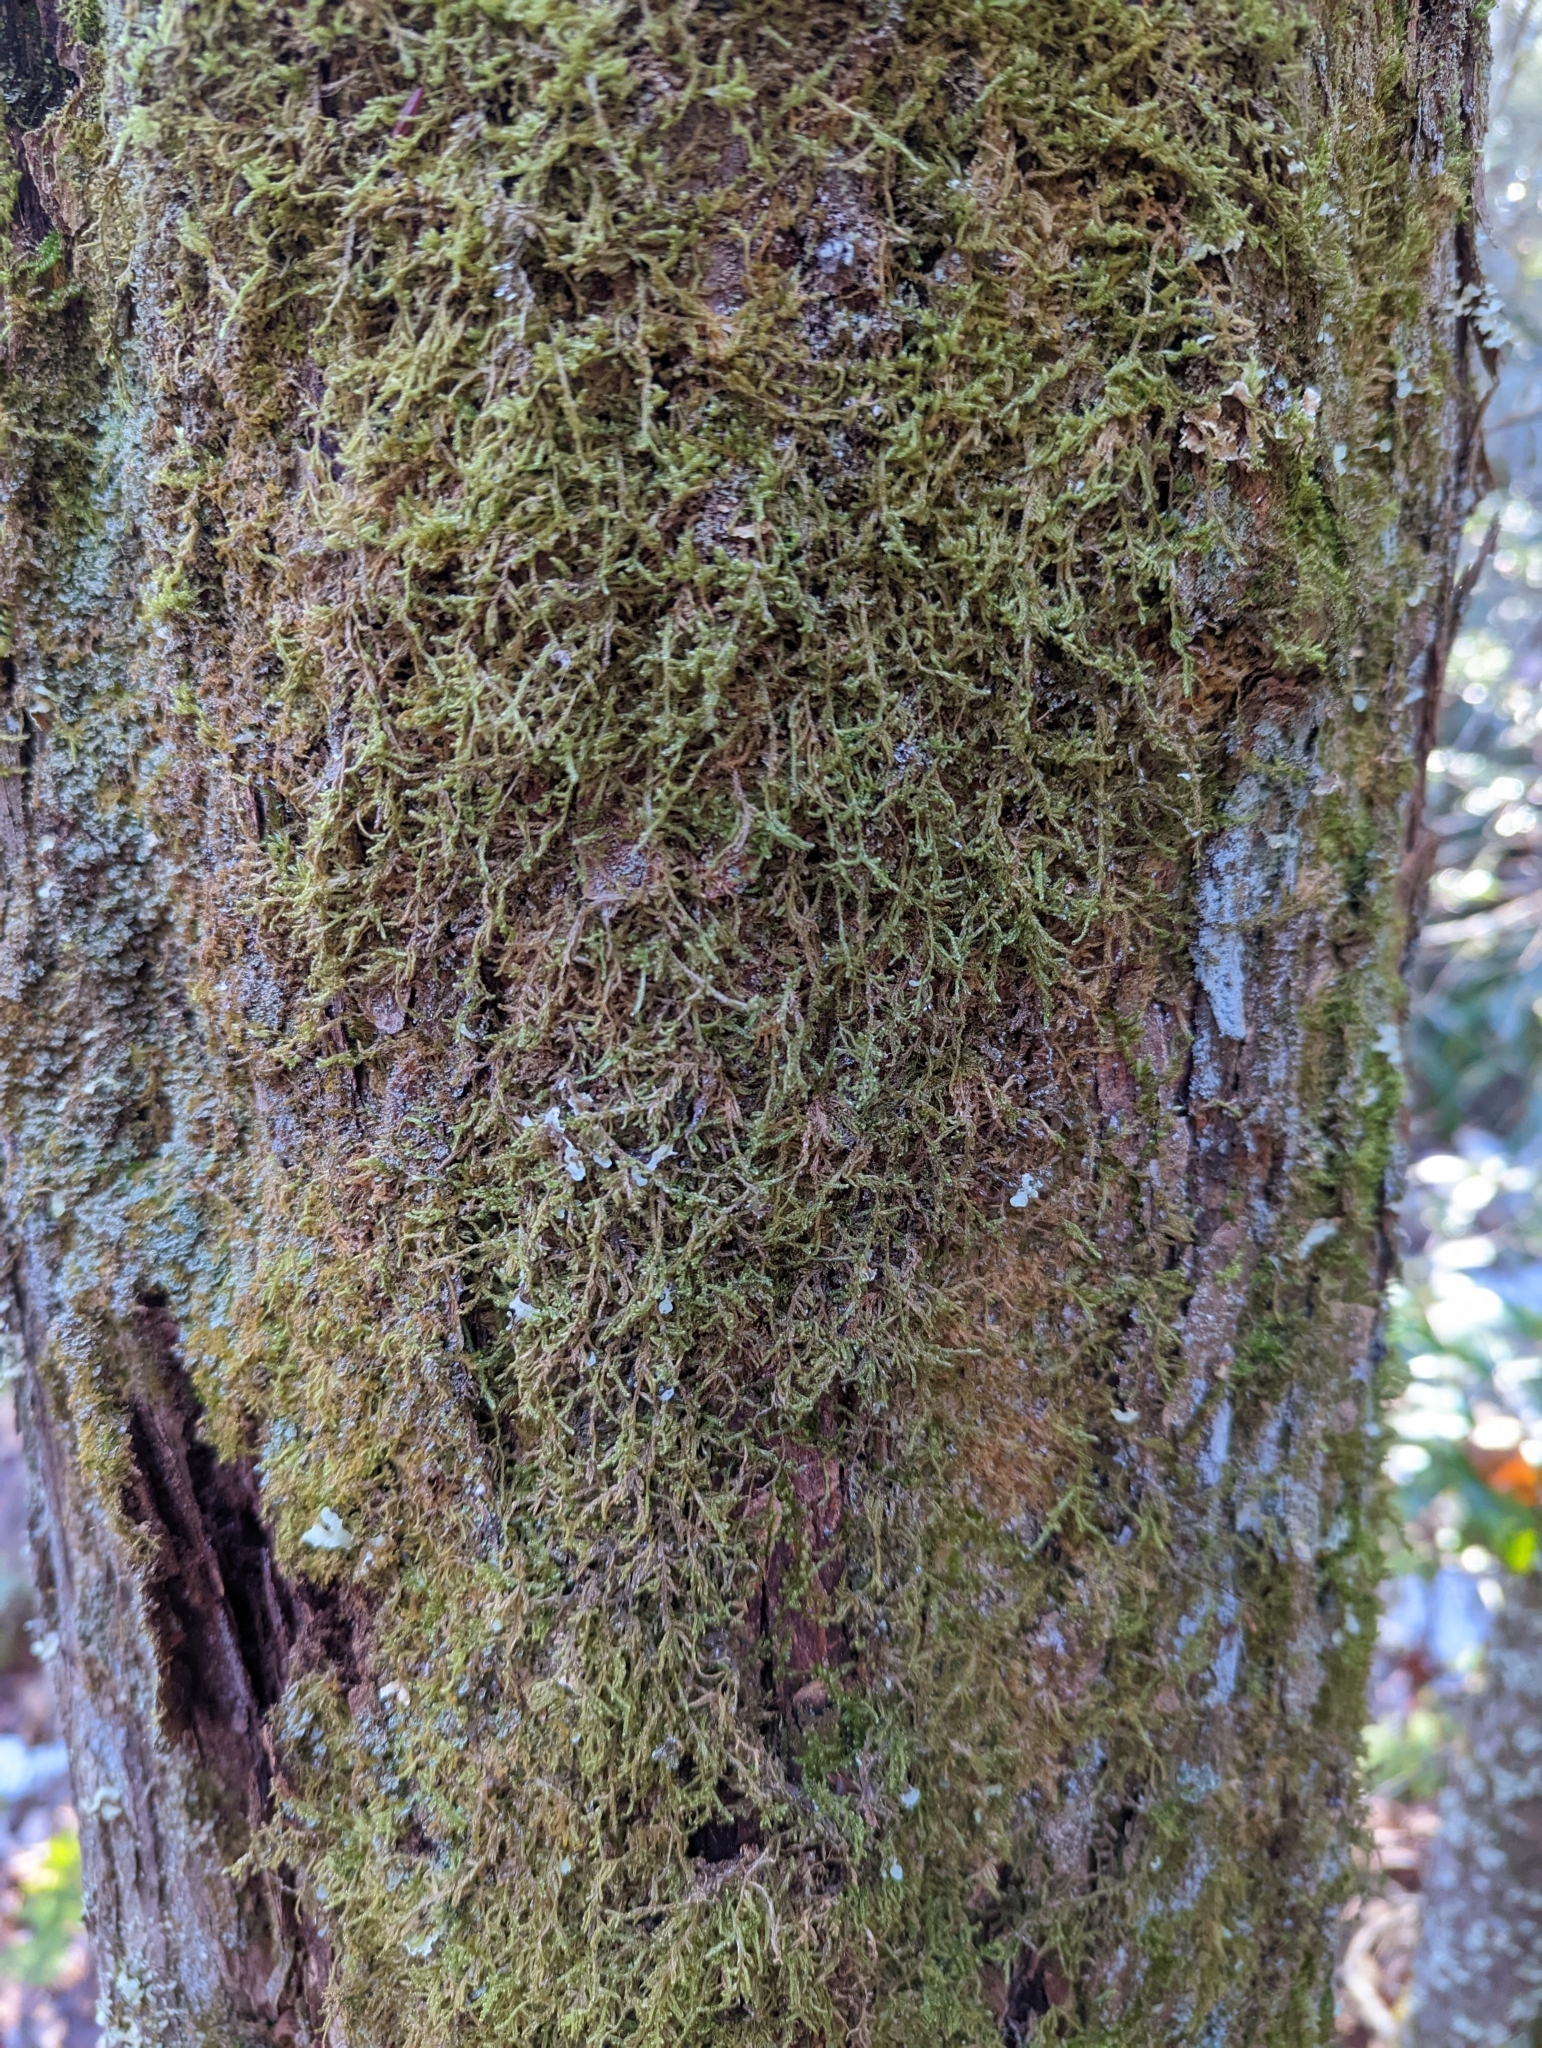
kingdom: Plantae
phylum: Bryophyta
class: Bryopsida
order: Hypnales
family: Callicladiaceae
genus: Callicladium
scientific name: Callicladium imponens
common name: Brocade moss
